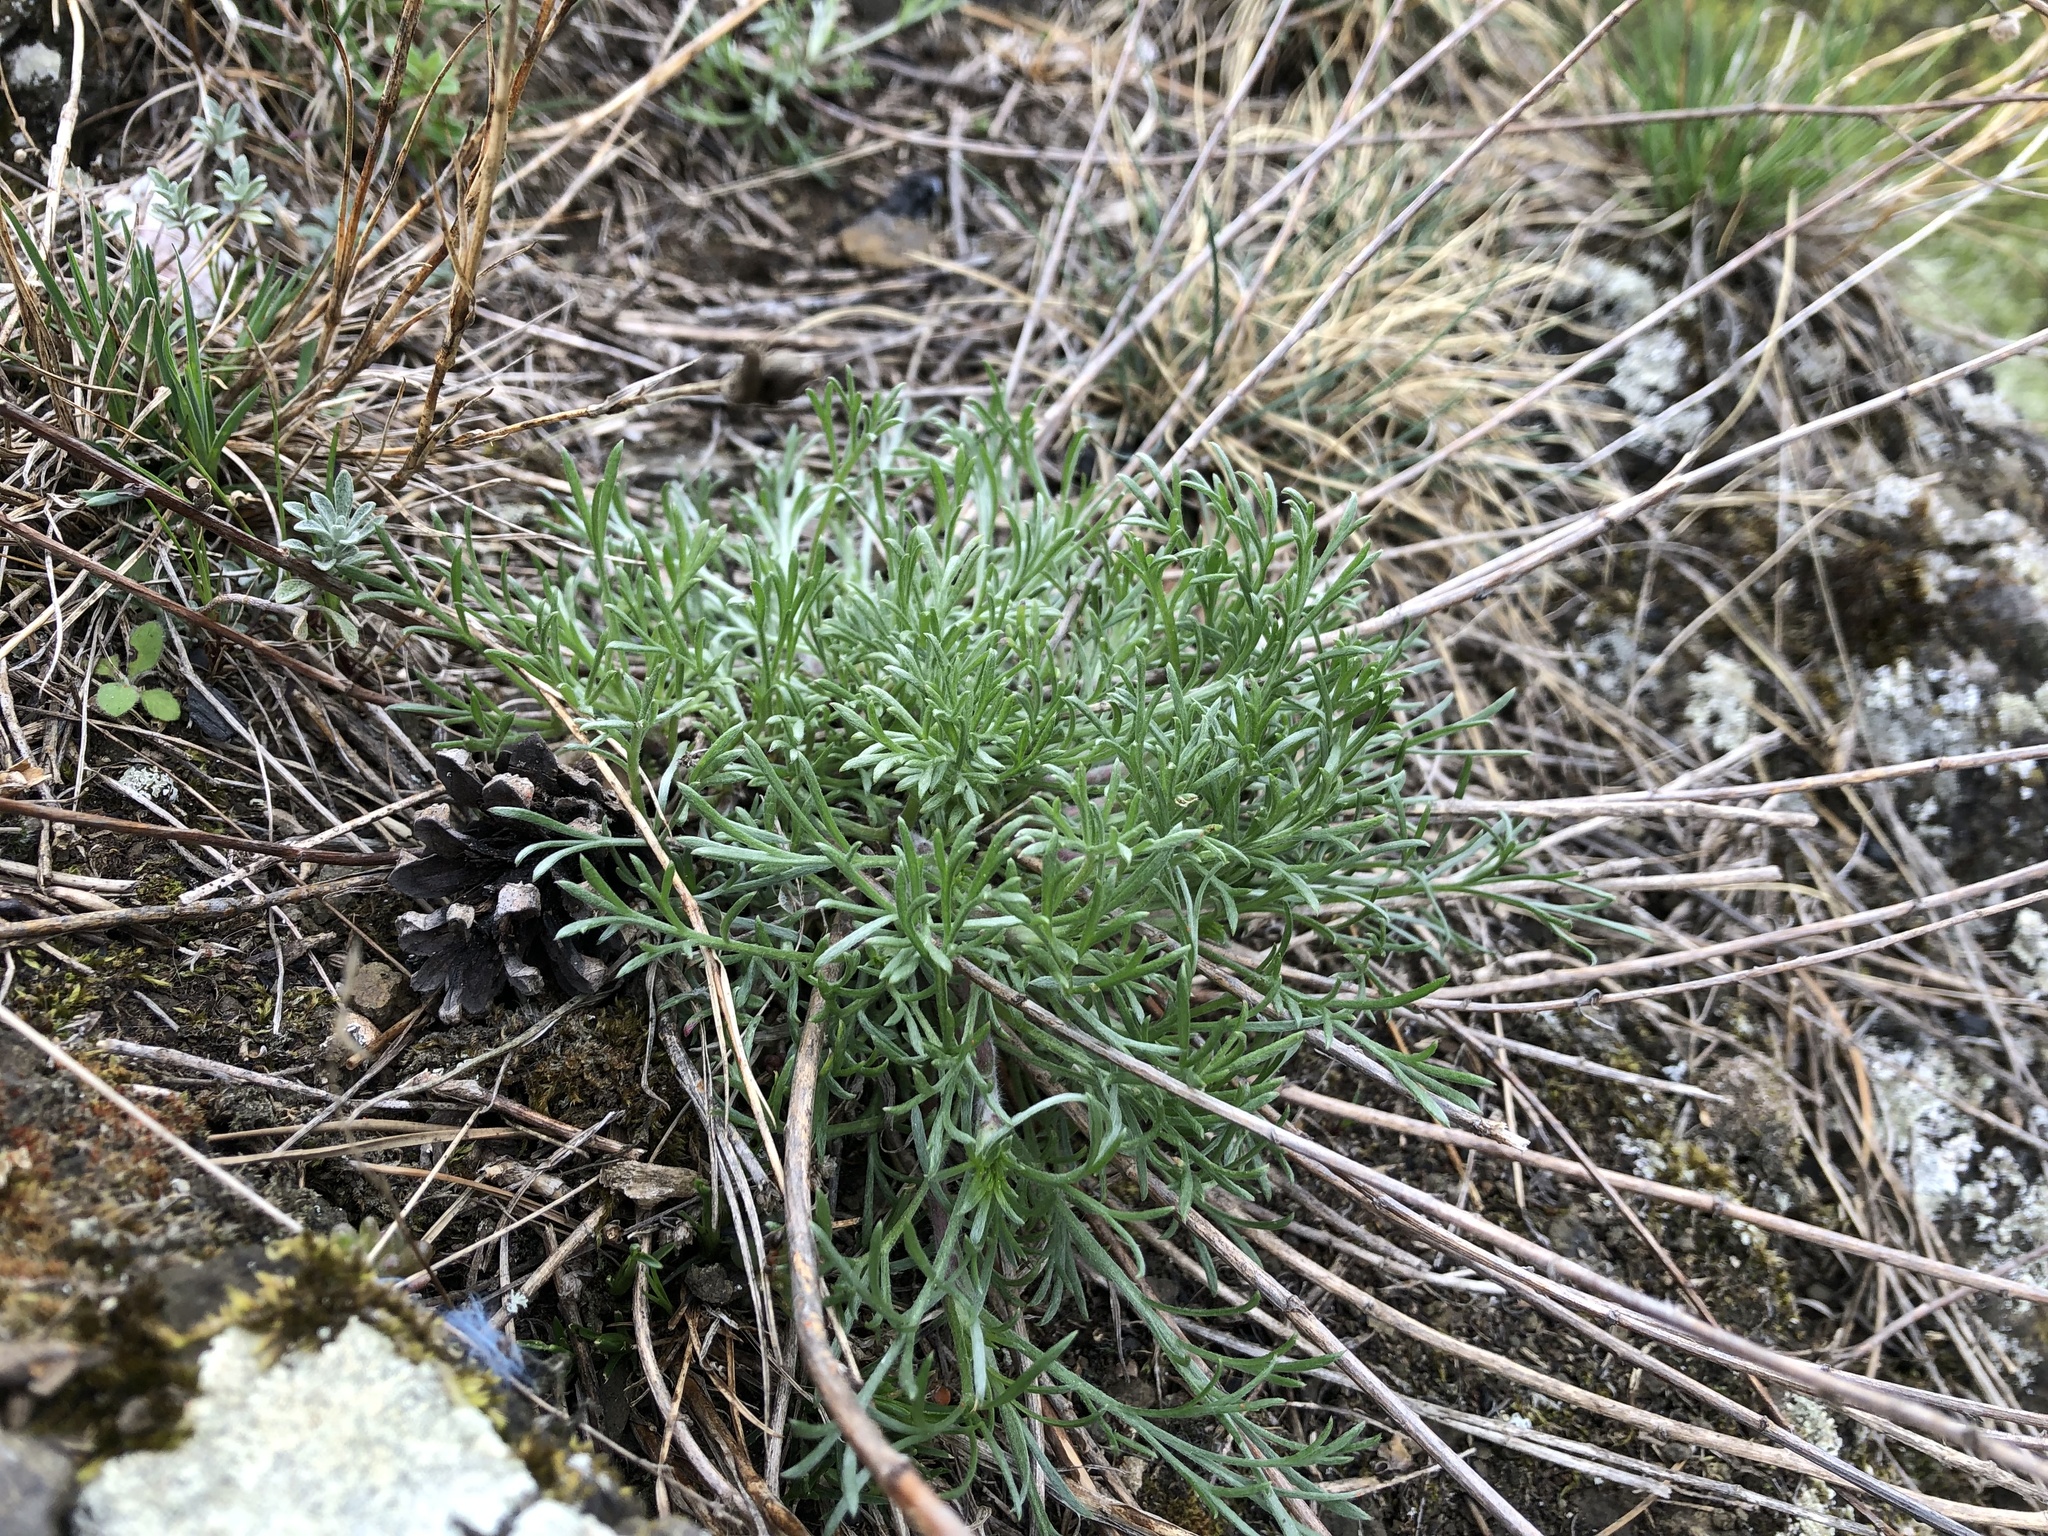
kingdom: Plantae
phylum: Tracheophyta
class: Magnoliopsida
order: Asterales
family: Asteraceae
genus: Artemisia
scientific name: Artemisia campestris
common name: Field wormwood
